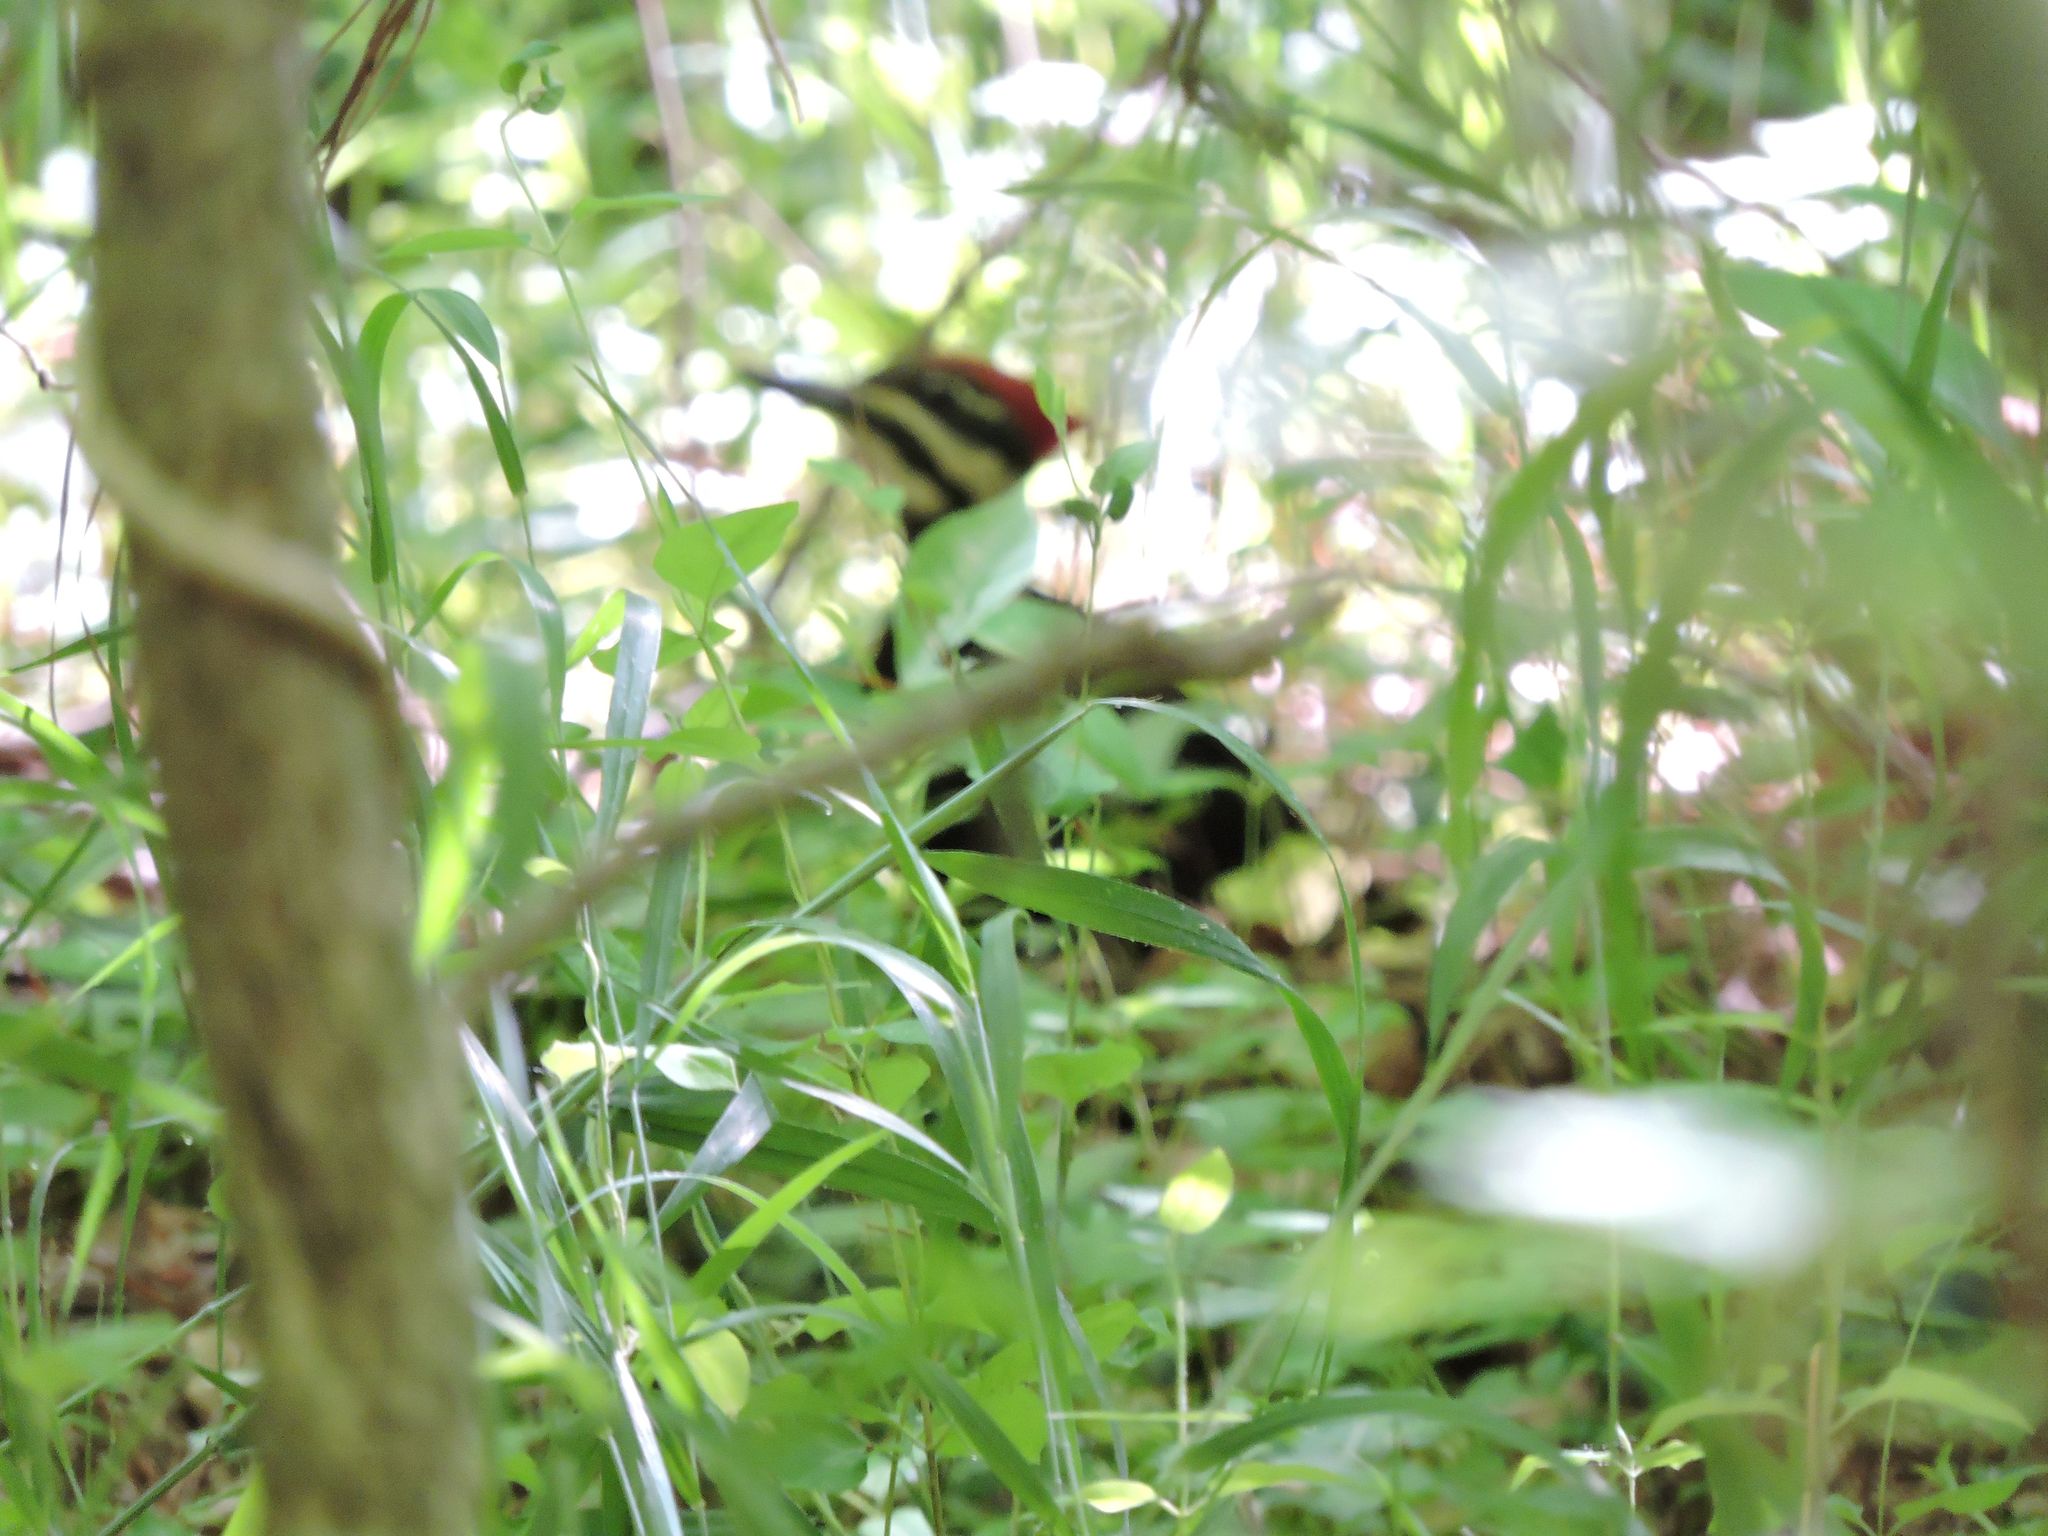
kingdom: Animalia
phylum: Chordata
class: Aves
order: Piciformes
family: Picidae
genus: Dryocopus
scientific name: Dryocopus pileatus
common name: Pileated woodpecker
